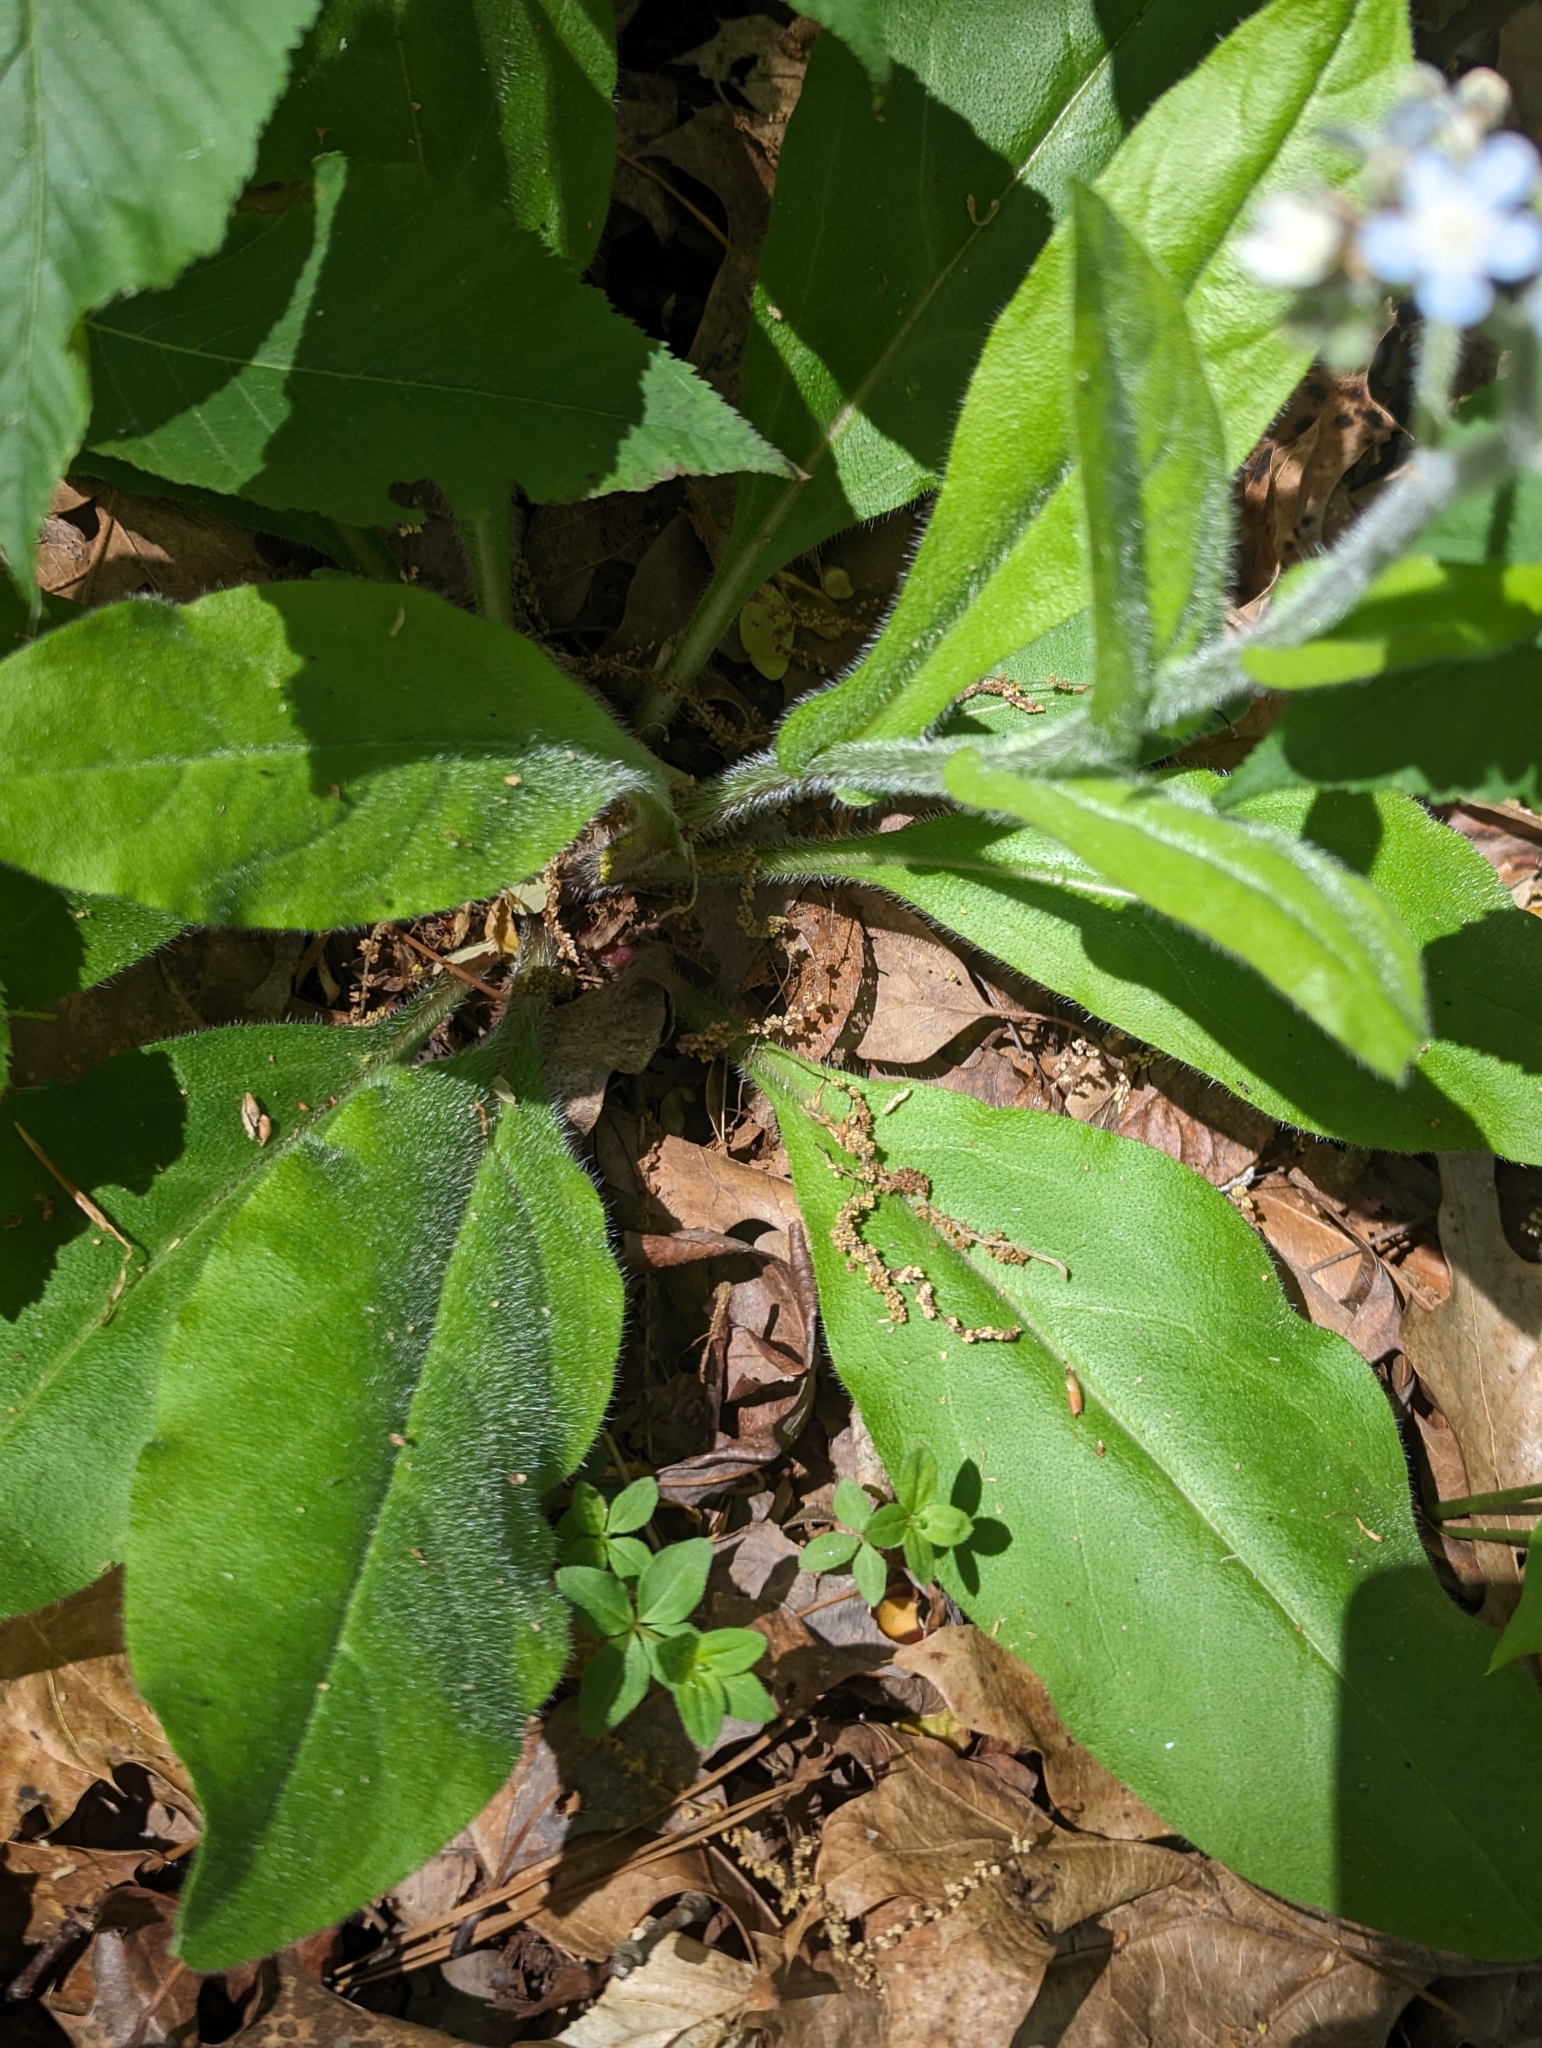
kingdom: Plantae
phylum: Tracheophyta
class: Magnoliopsida
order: Boraginales
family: Boraginaceae
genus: Andersonglossum
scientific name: Andersonglossum virginianum
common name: Wild comfrey
